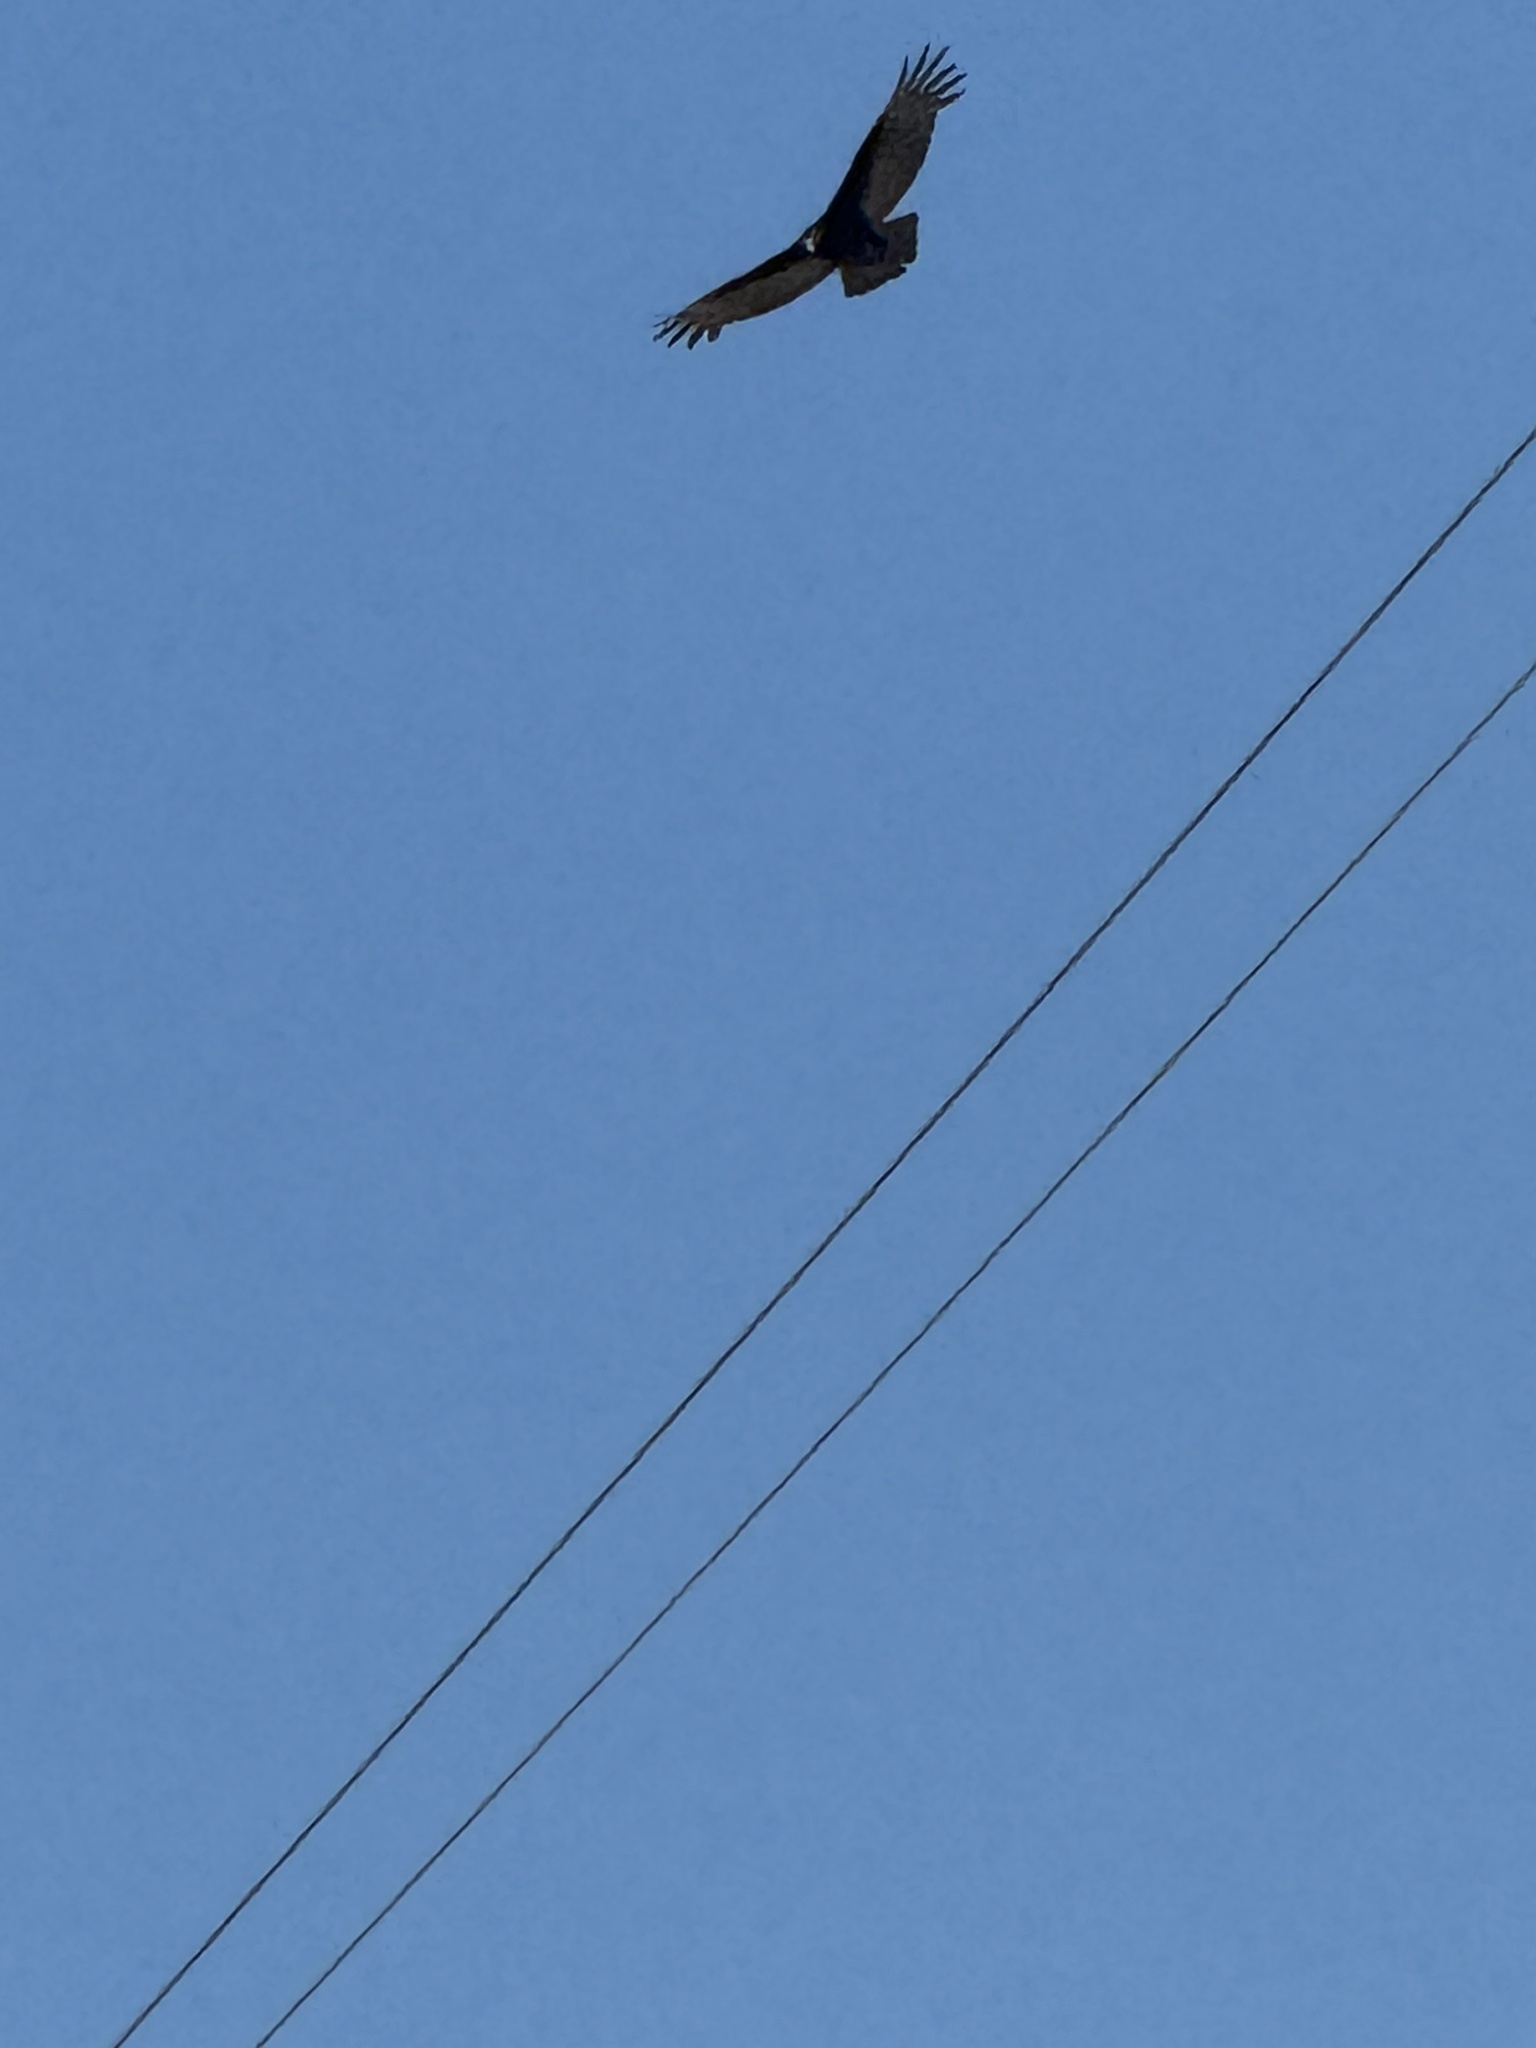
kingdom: Animalia
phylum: Chordata
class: Aves
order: Accipitriformes
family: Cathartidae
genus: Cathartes
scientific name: Cathartes aura
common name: Turkey vulture
